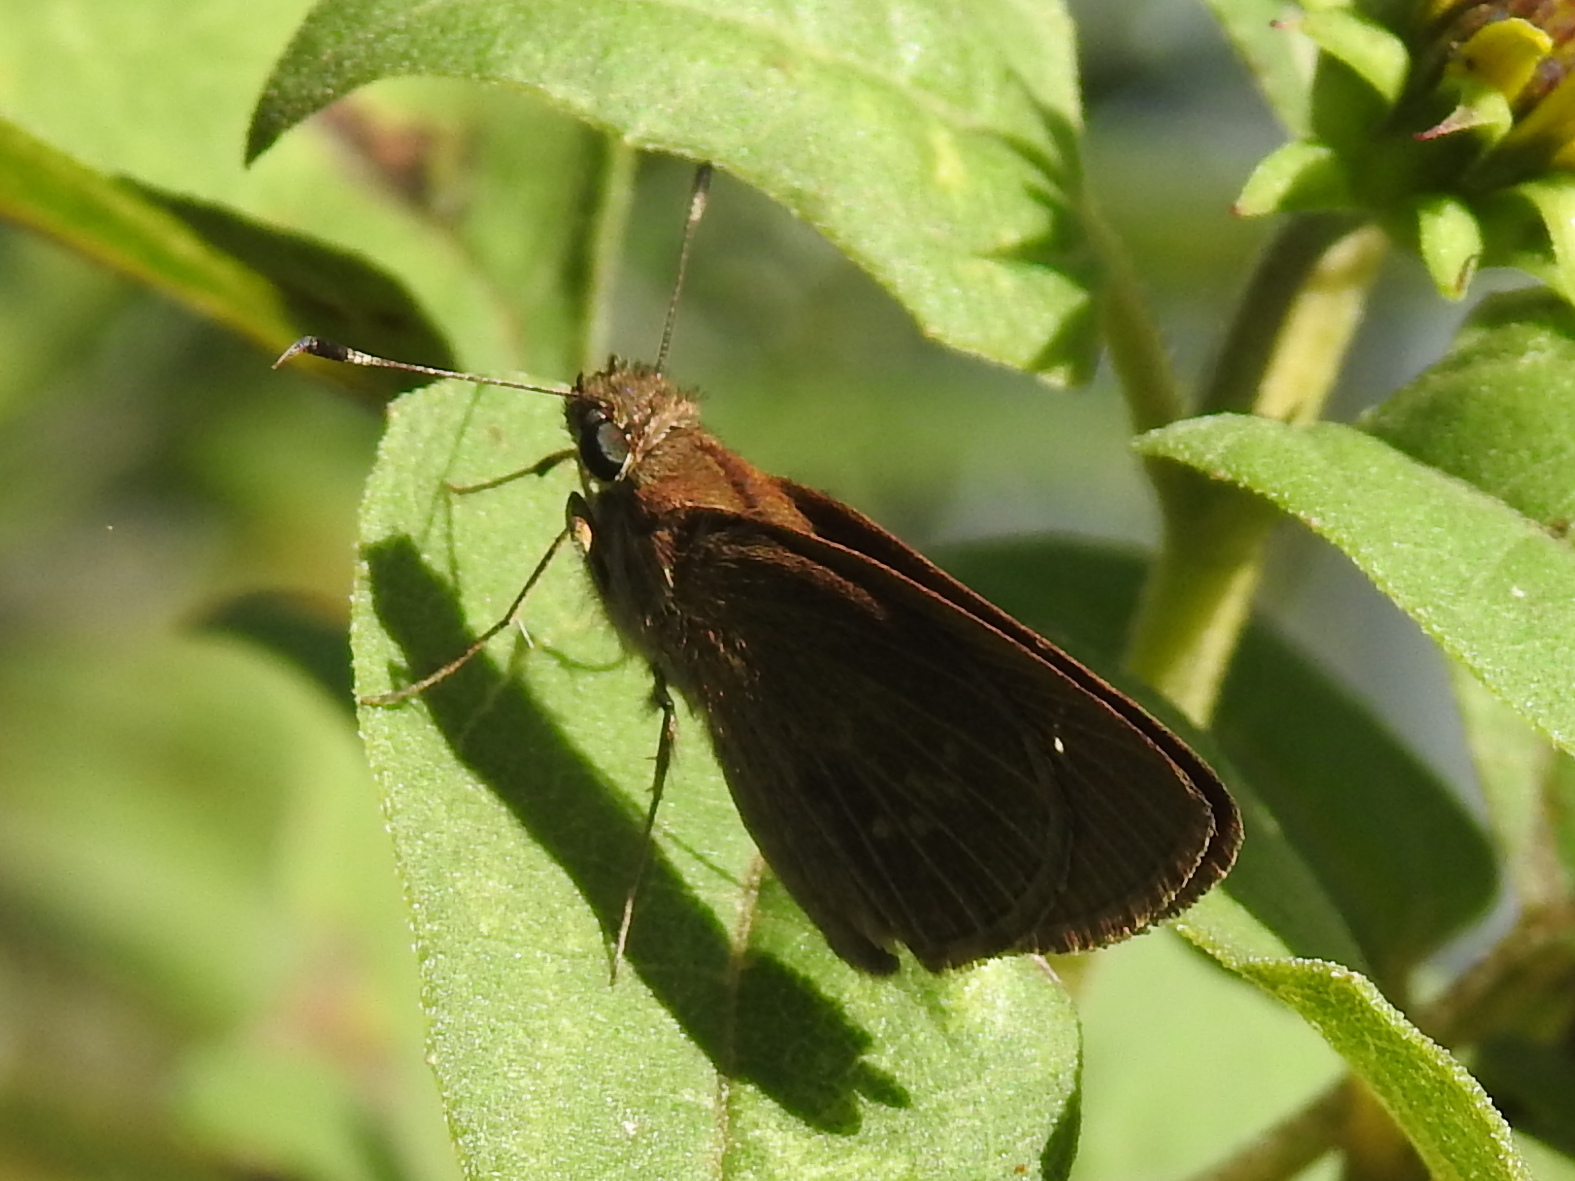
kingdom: Animalia
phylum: Arthropoda
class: Insecta
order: Lepidoptera
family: Hesperiidae
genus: Cymaenes
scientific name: Cymaenes tripunctus
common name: Dingy dotted skipper
